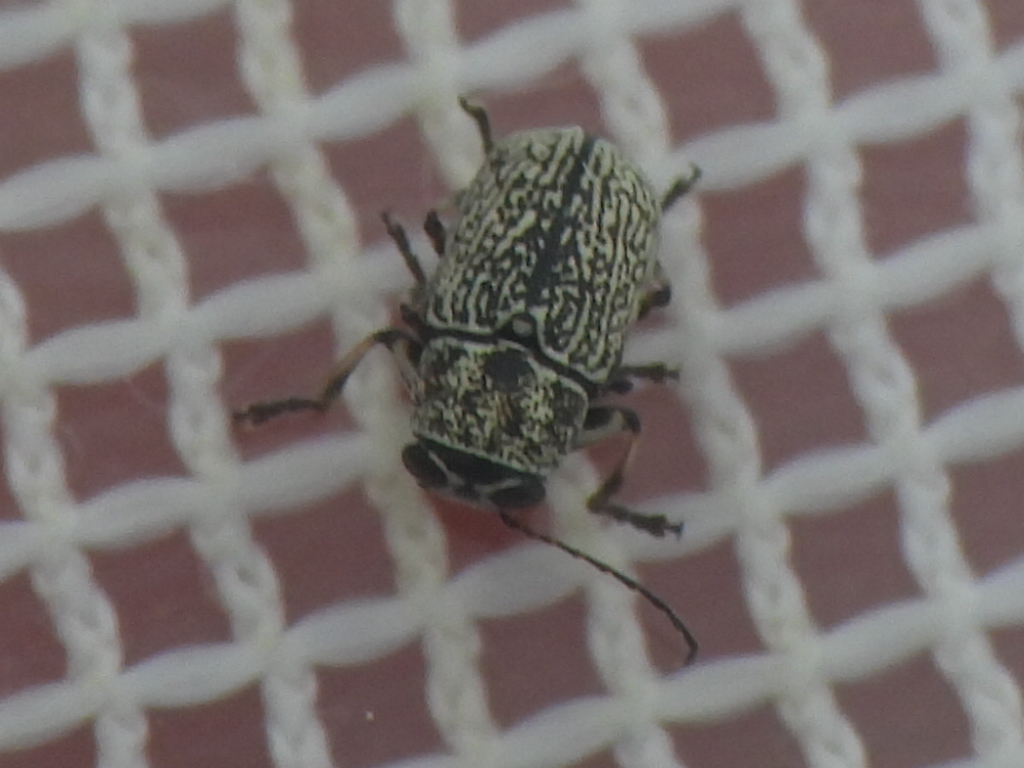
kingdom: Animalia
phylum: Arthropoda
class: Insecta
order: Coleoptera
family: Chrysomelidae
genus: Pachybrachis
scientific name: Pachybrachis brevicollis
